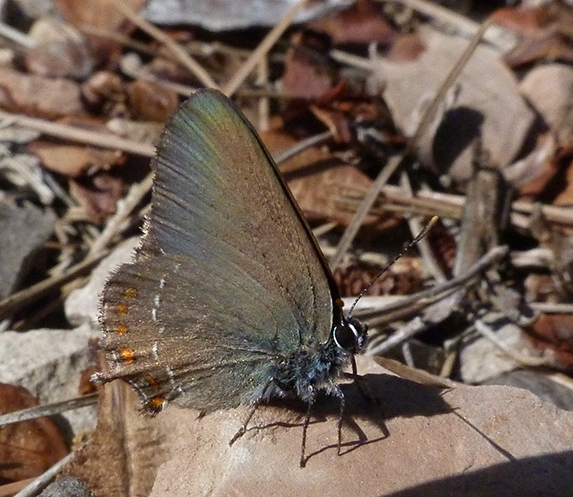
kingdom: Animalia
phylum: Arthropoda
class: Insecta
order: Lepidoptera
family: Lycaenidae
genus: Fixsenia
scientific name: Fixsenia esculi
